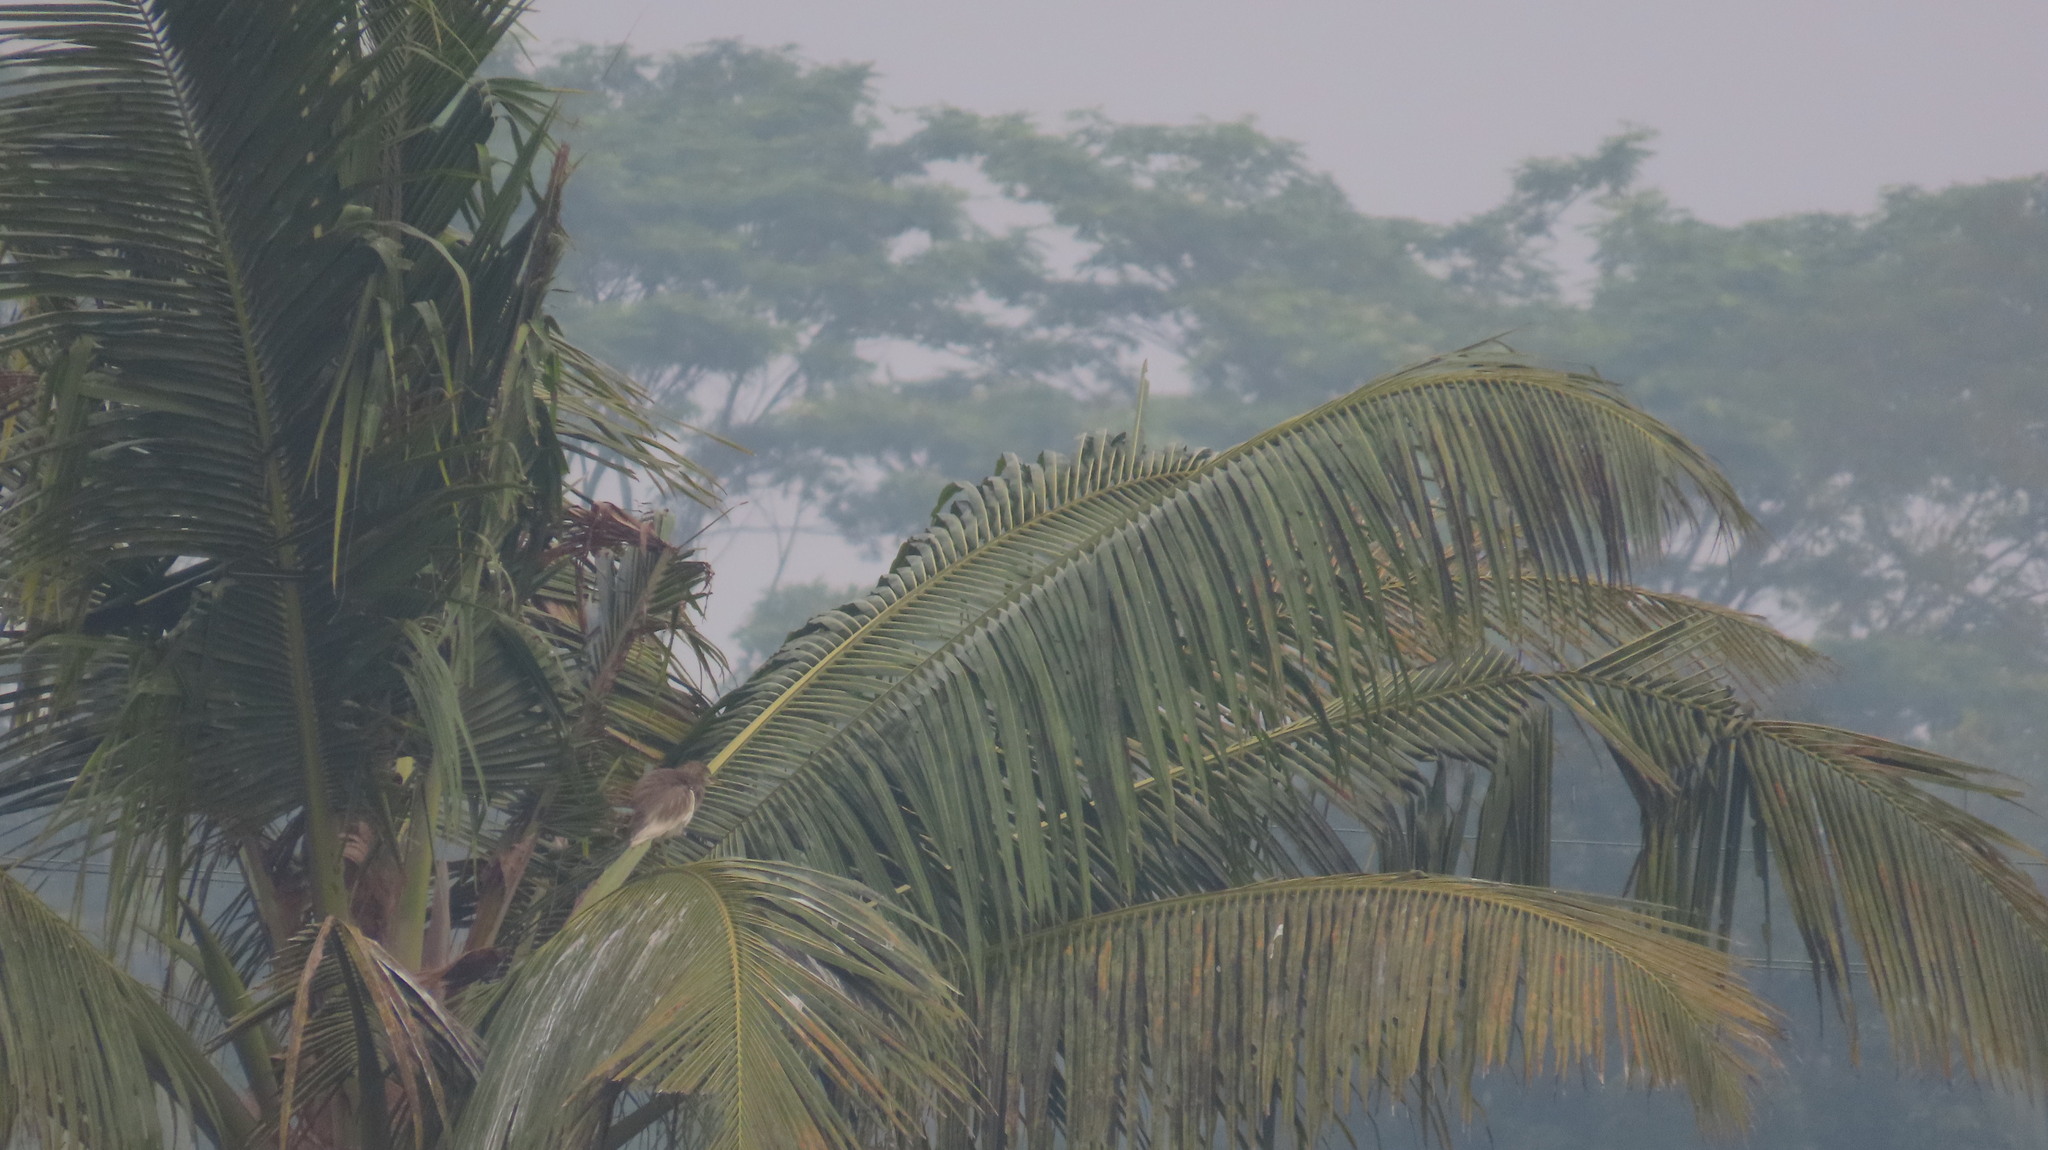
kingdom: Animalia
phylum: Chordata
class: Aves
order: Pelecaniformes
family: Ardeidae
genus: Ardeola
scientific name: Ardeola grayii
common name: Indian pond heron
